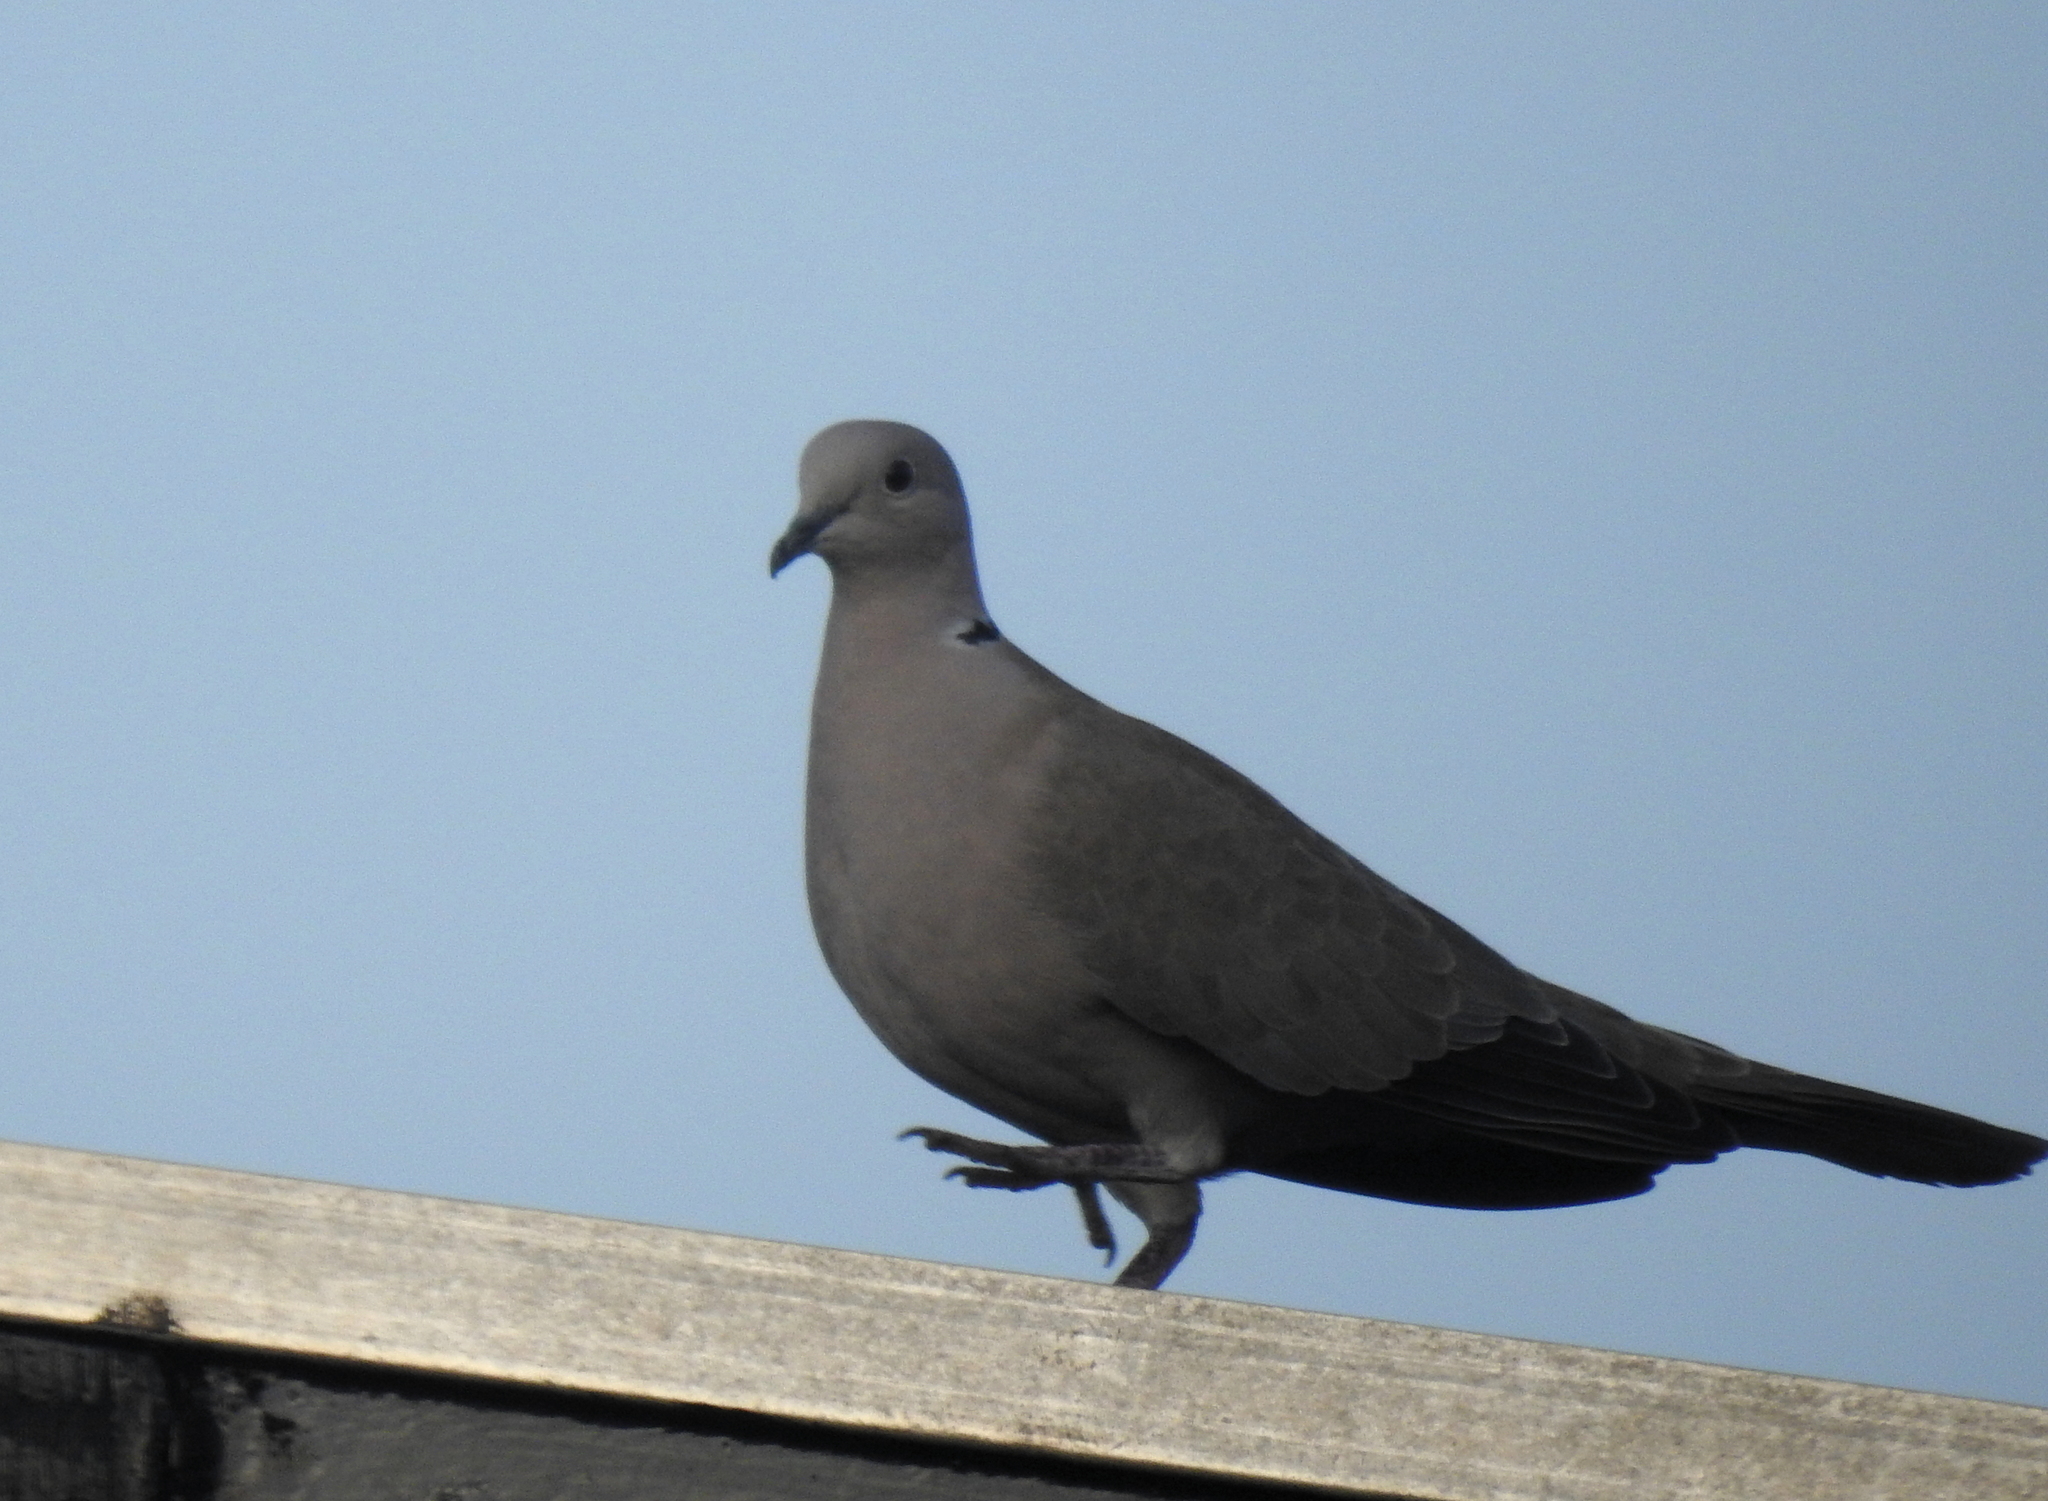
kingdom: Animalia
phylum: Chordata
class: Aves
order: Columbiformes
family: Columbidae
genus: Streptopelia
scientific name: Streptopelia decaocto
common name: Eurasian collared dove
